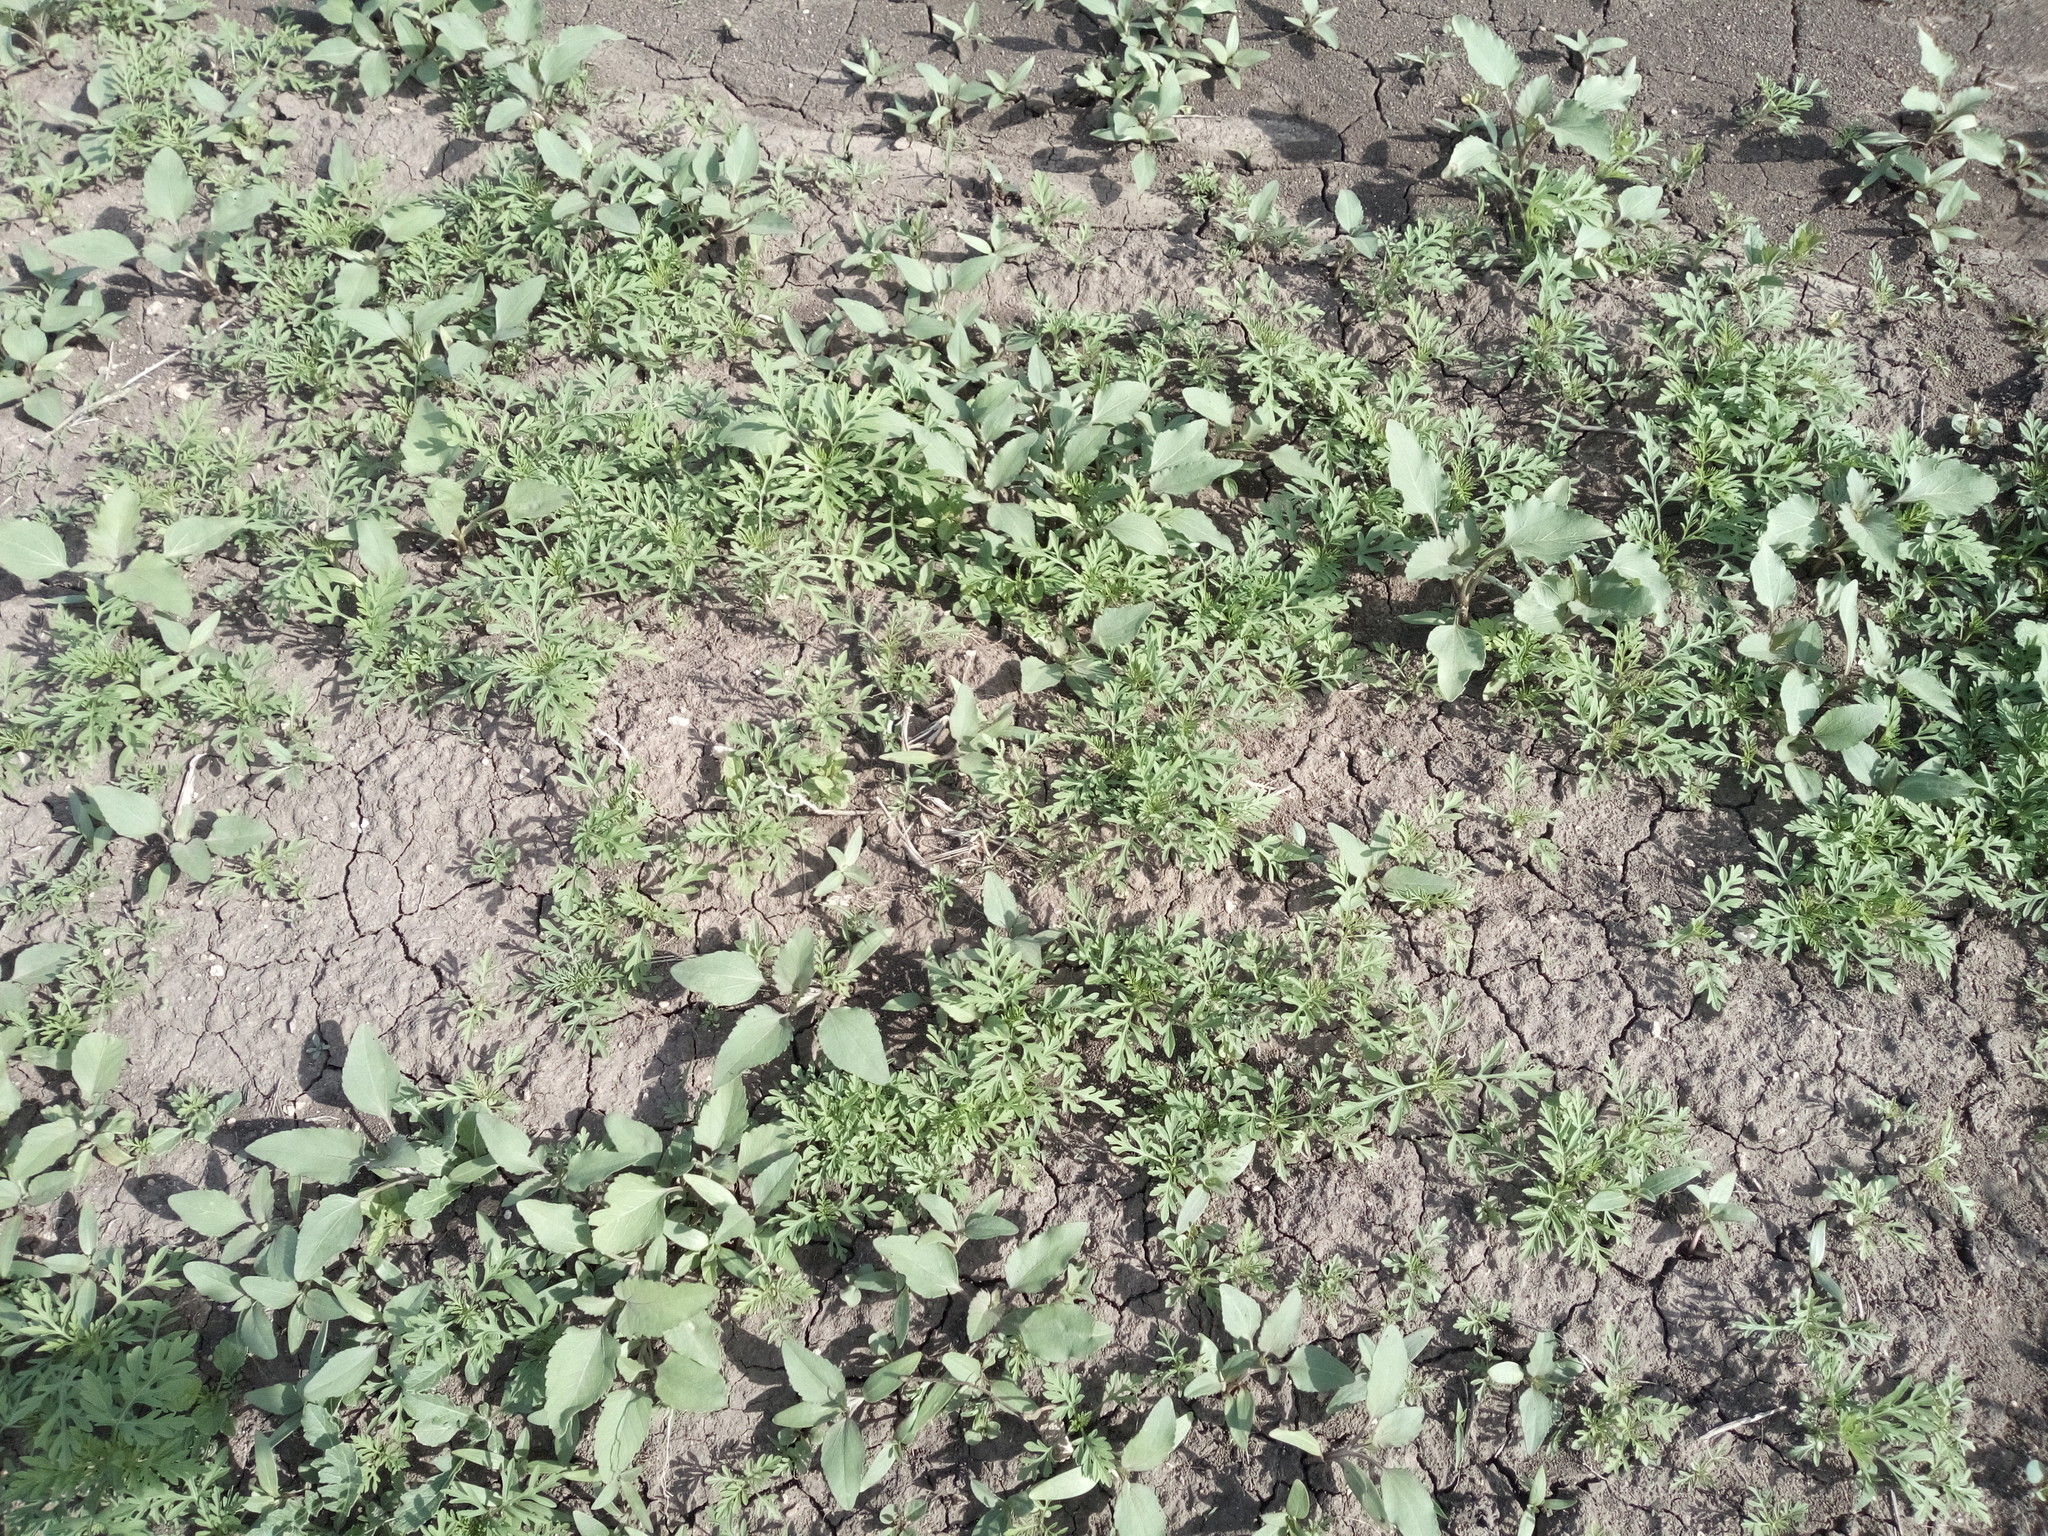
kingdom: Plantae
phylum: Tracheophyta
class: Magnoliopsida
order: Asterales
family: Asteraceae
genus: Ambrosia
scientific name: Ambrosia artemisiifolia
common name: Annual ragweed
